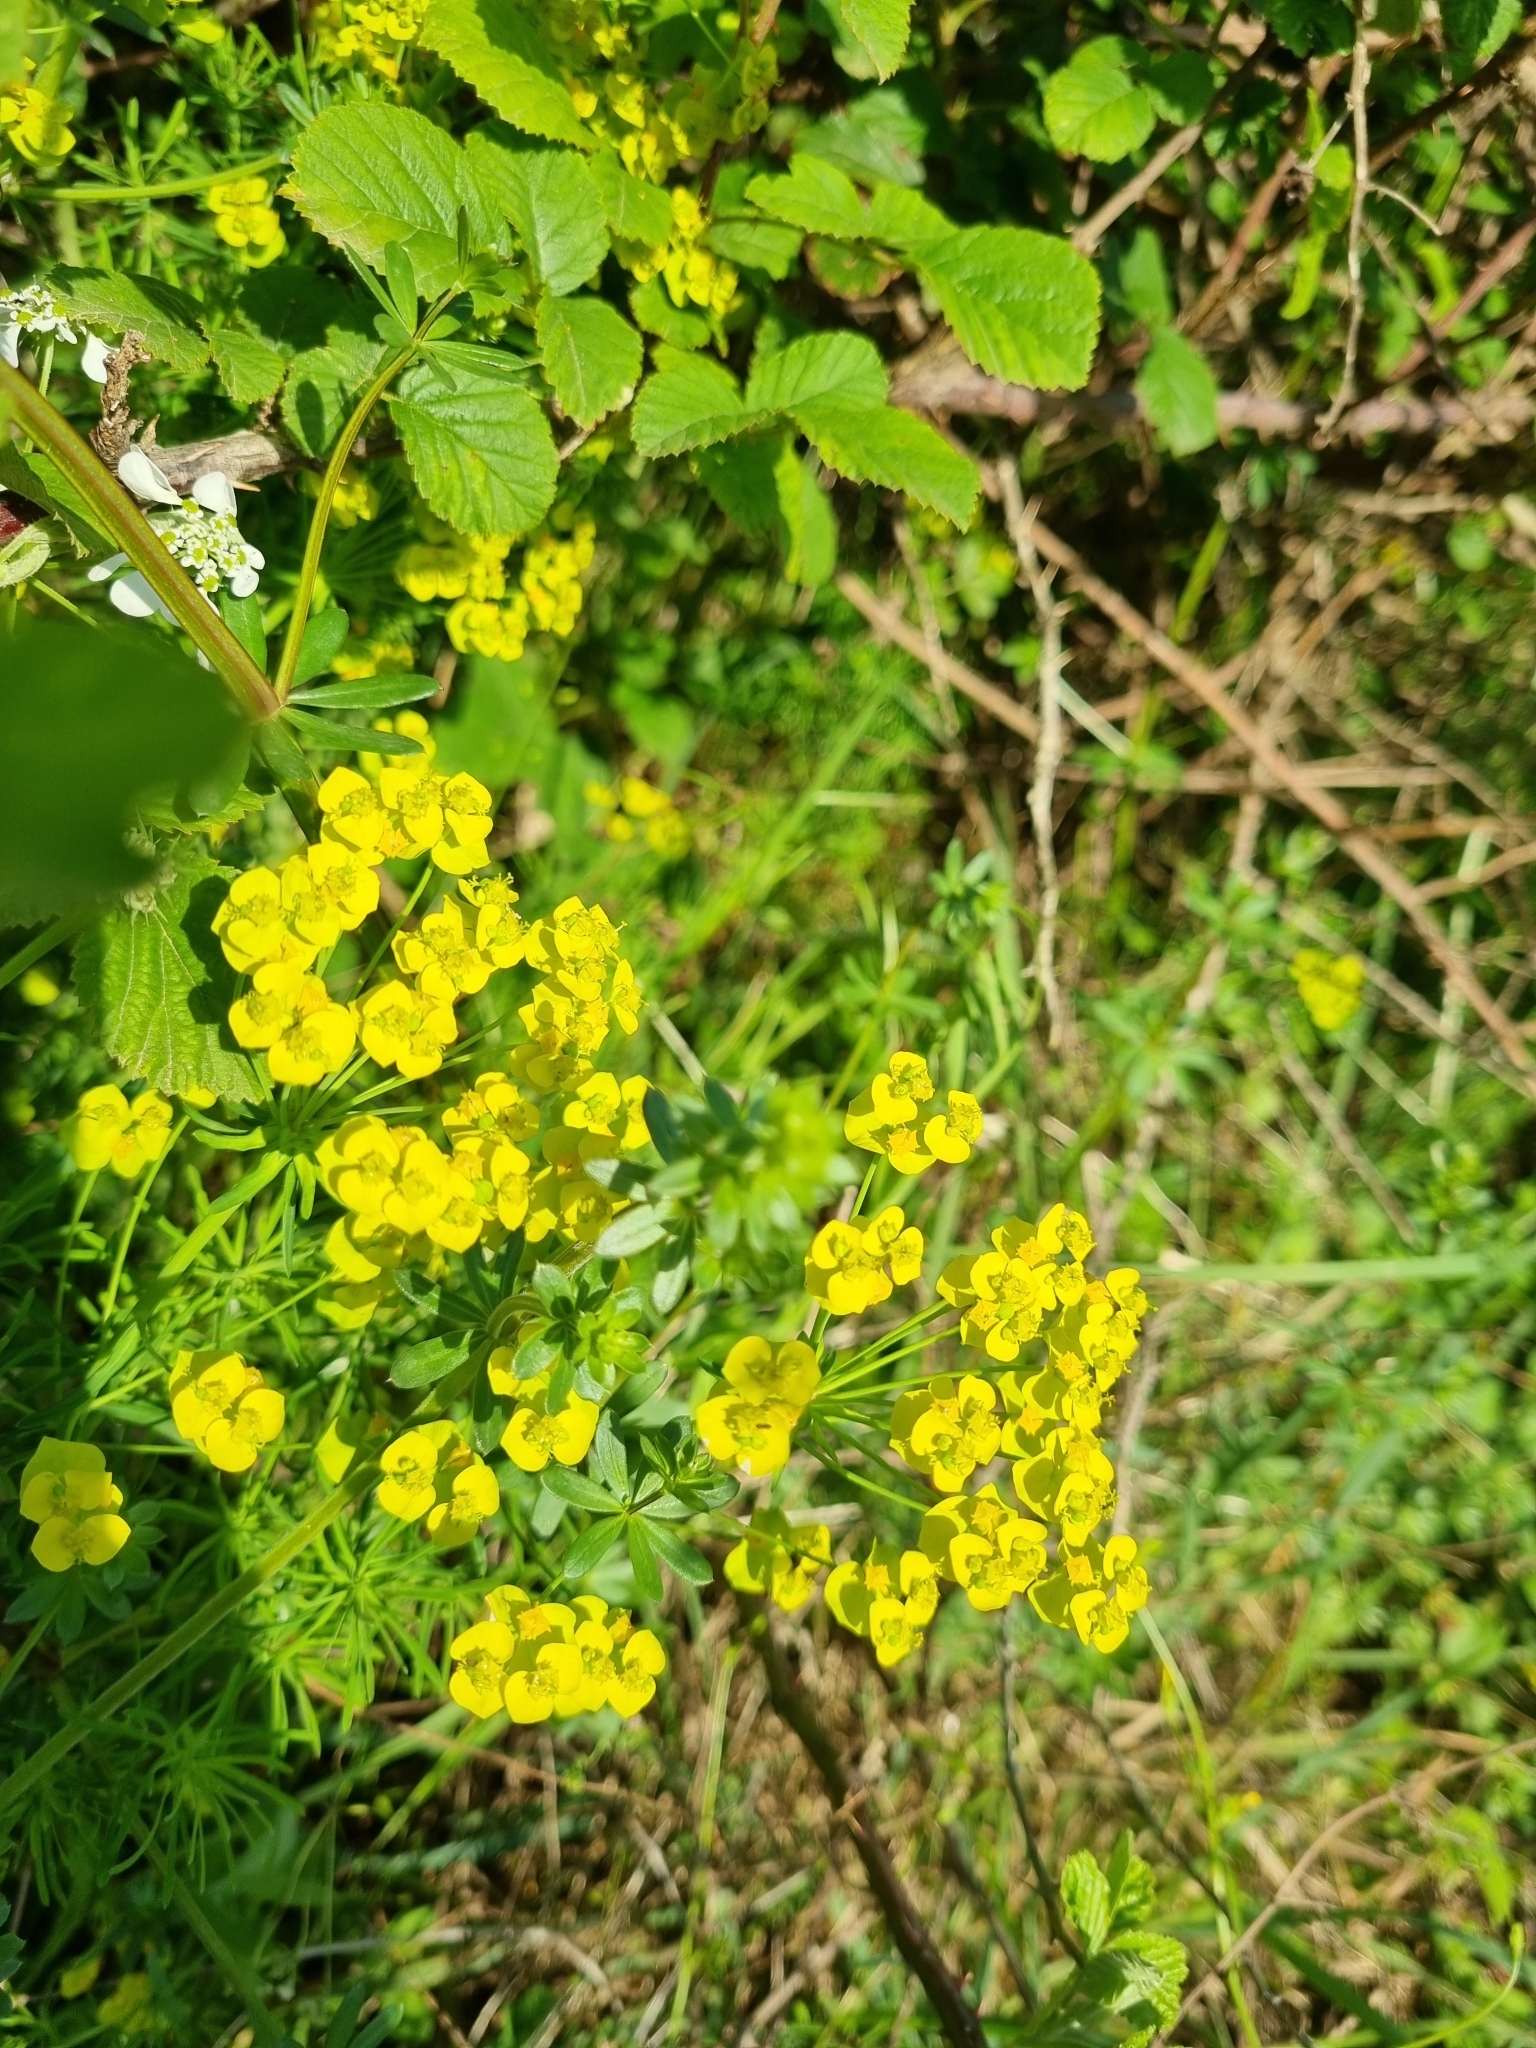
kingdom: Plantae
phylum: Tracheophyta
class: Magnoliopsida
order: Malpighiales
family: Euphorbiaceae
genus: Euphorbia
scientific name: Euphorbia cyparissias
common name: Cypress spurge
